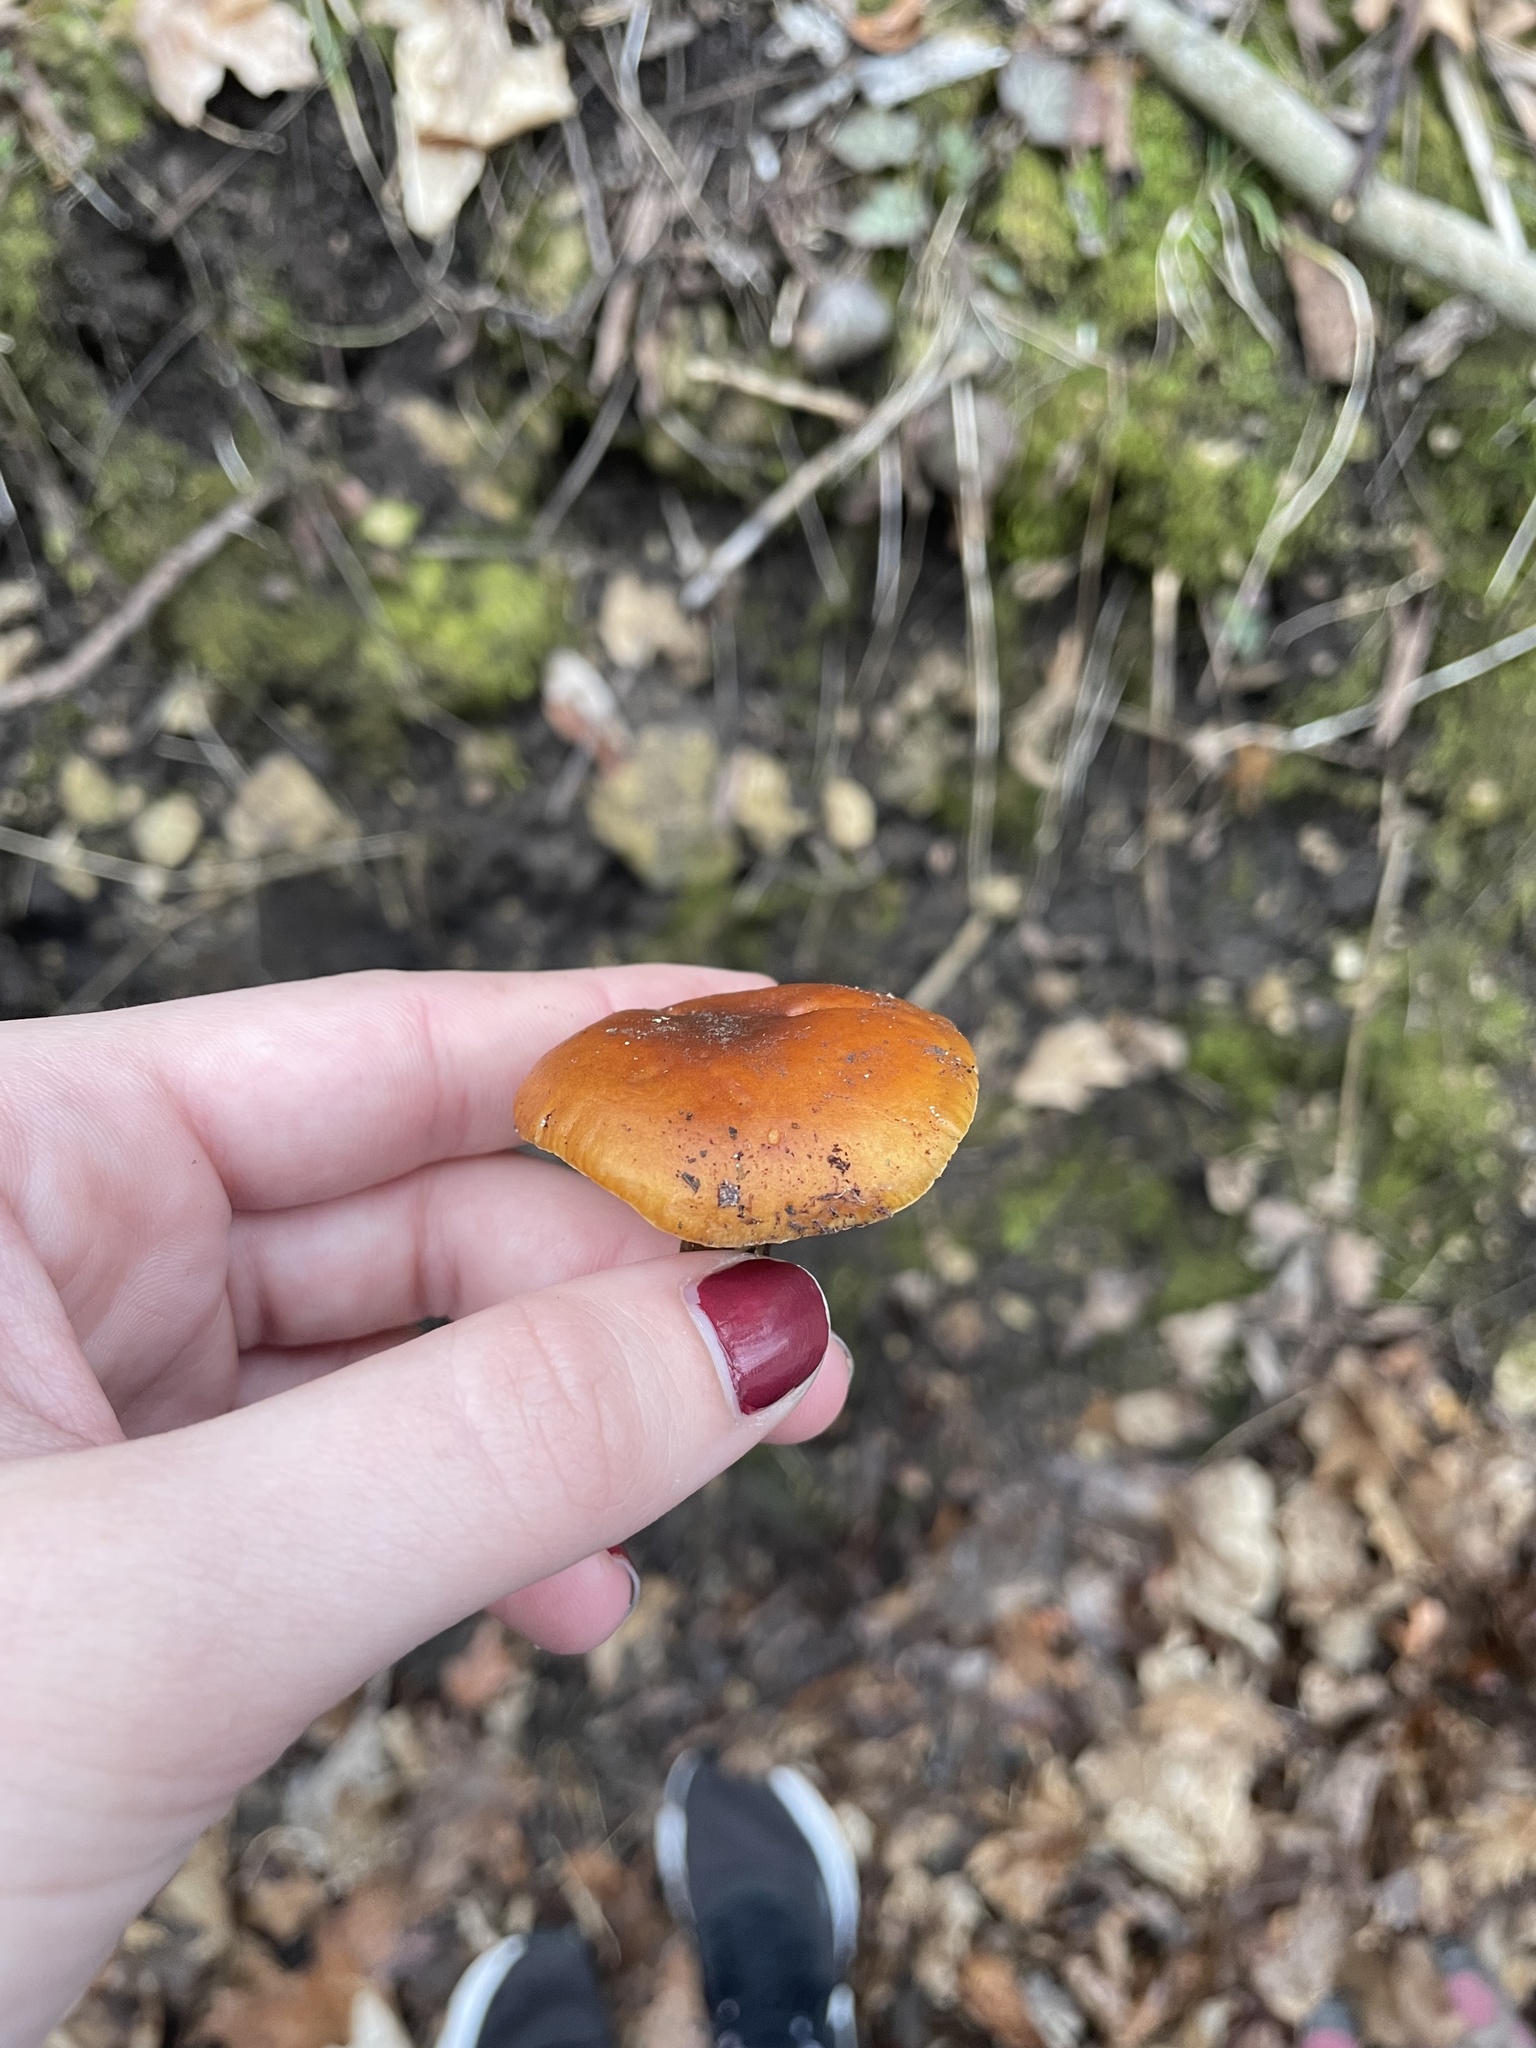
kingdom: Fungi
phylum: Basidiomycota
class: Agaricomycetes
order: Agaricales
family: Physalacriaceae
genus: Flammulina
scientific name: Flammulina velutipes
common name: Velvet shank
